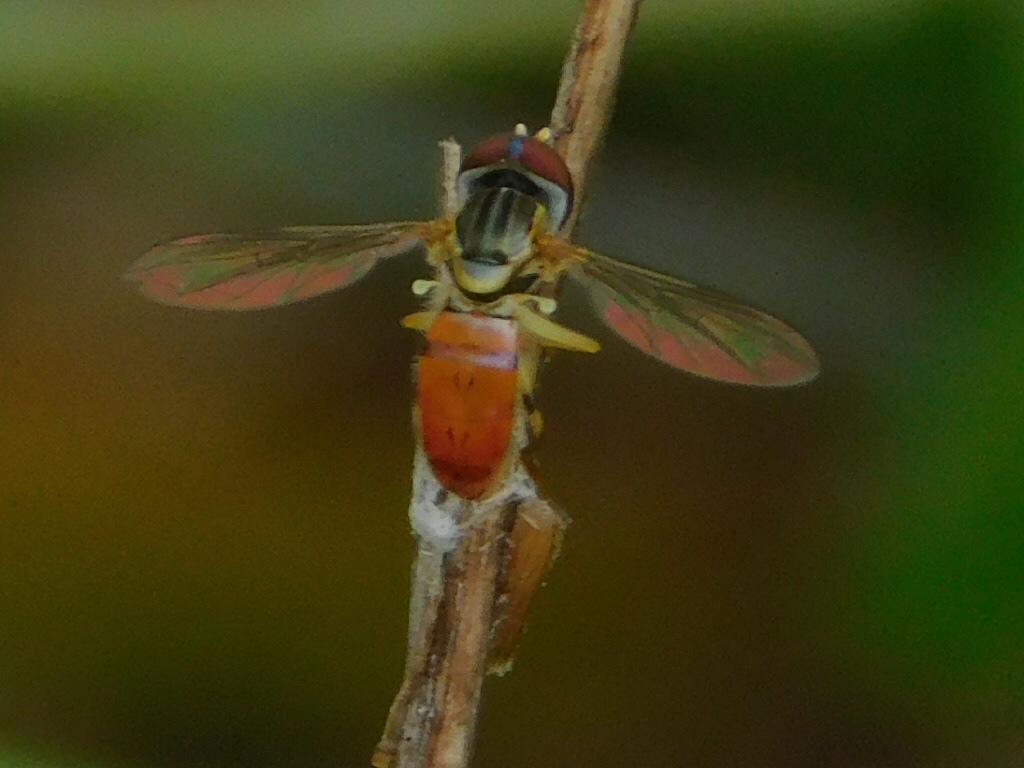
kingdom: Animalia
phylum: Arthropoda
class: Insecta
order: Diptera
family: Syrphidae
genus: Toxomerus
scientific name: Toxomerus boscii
